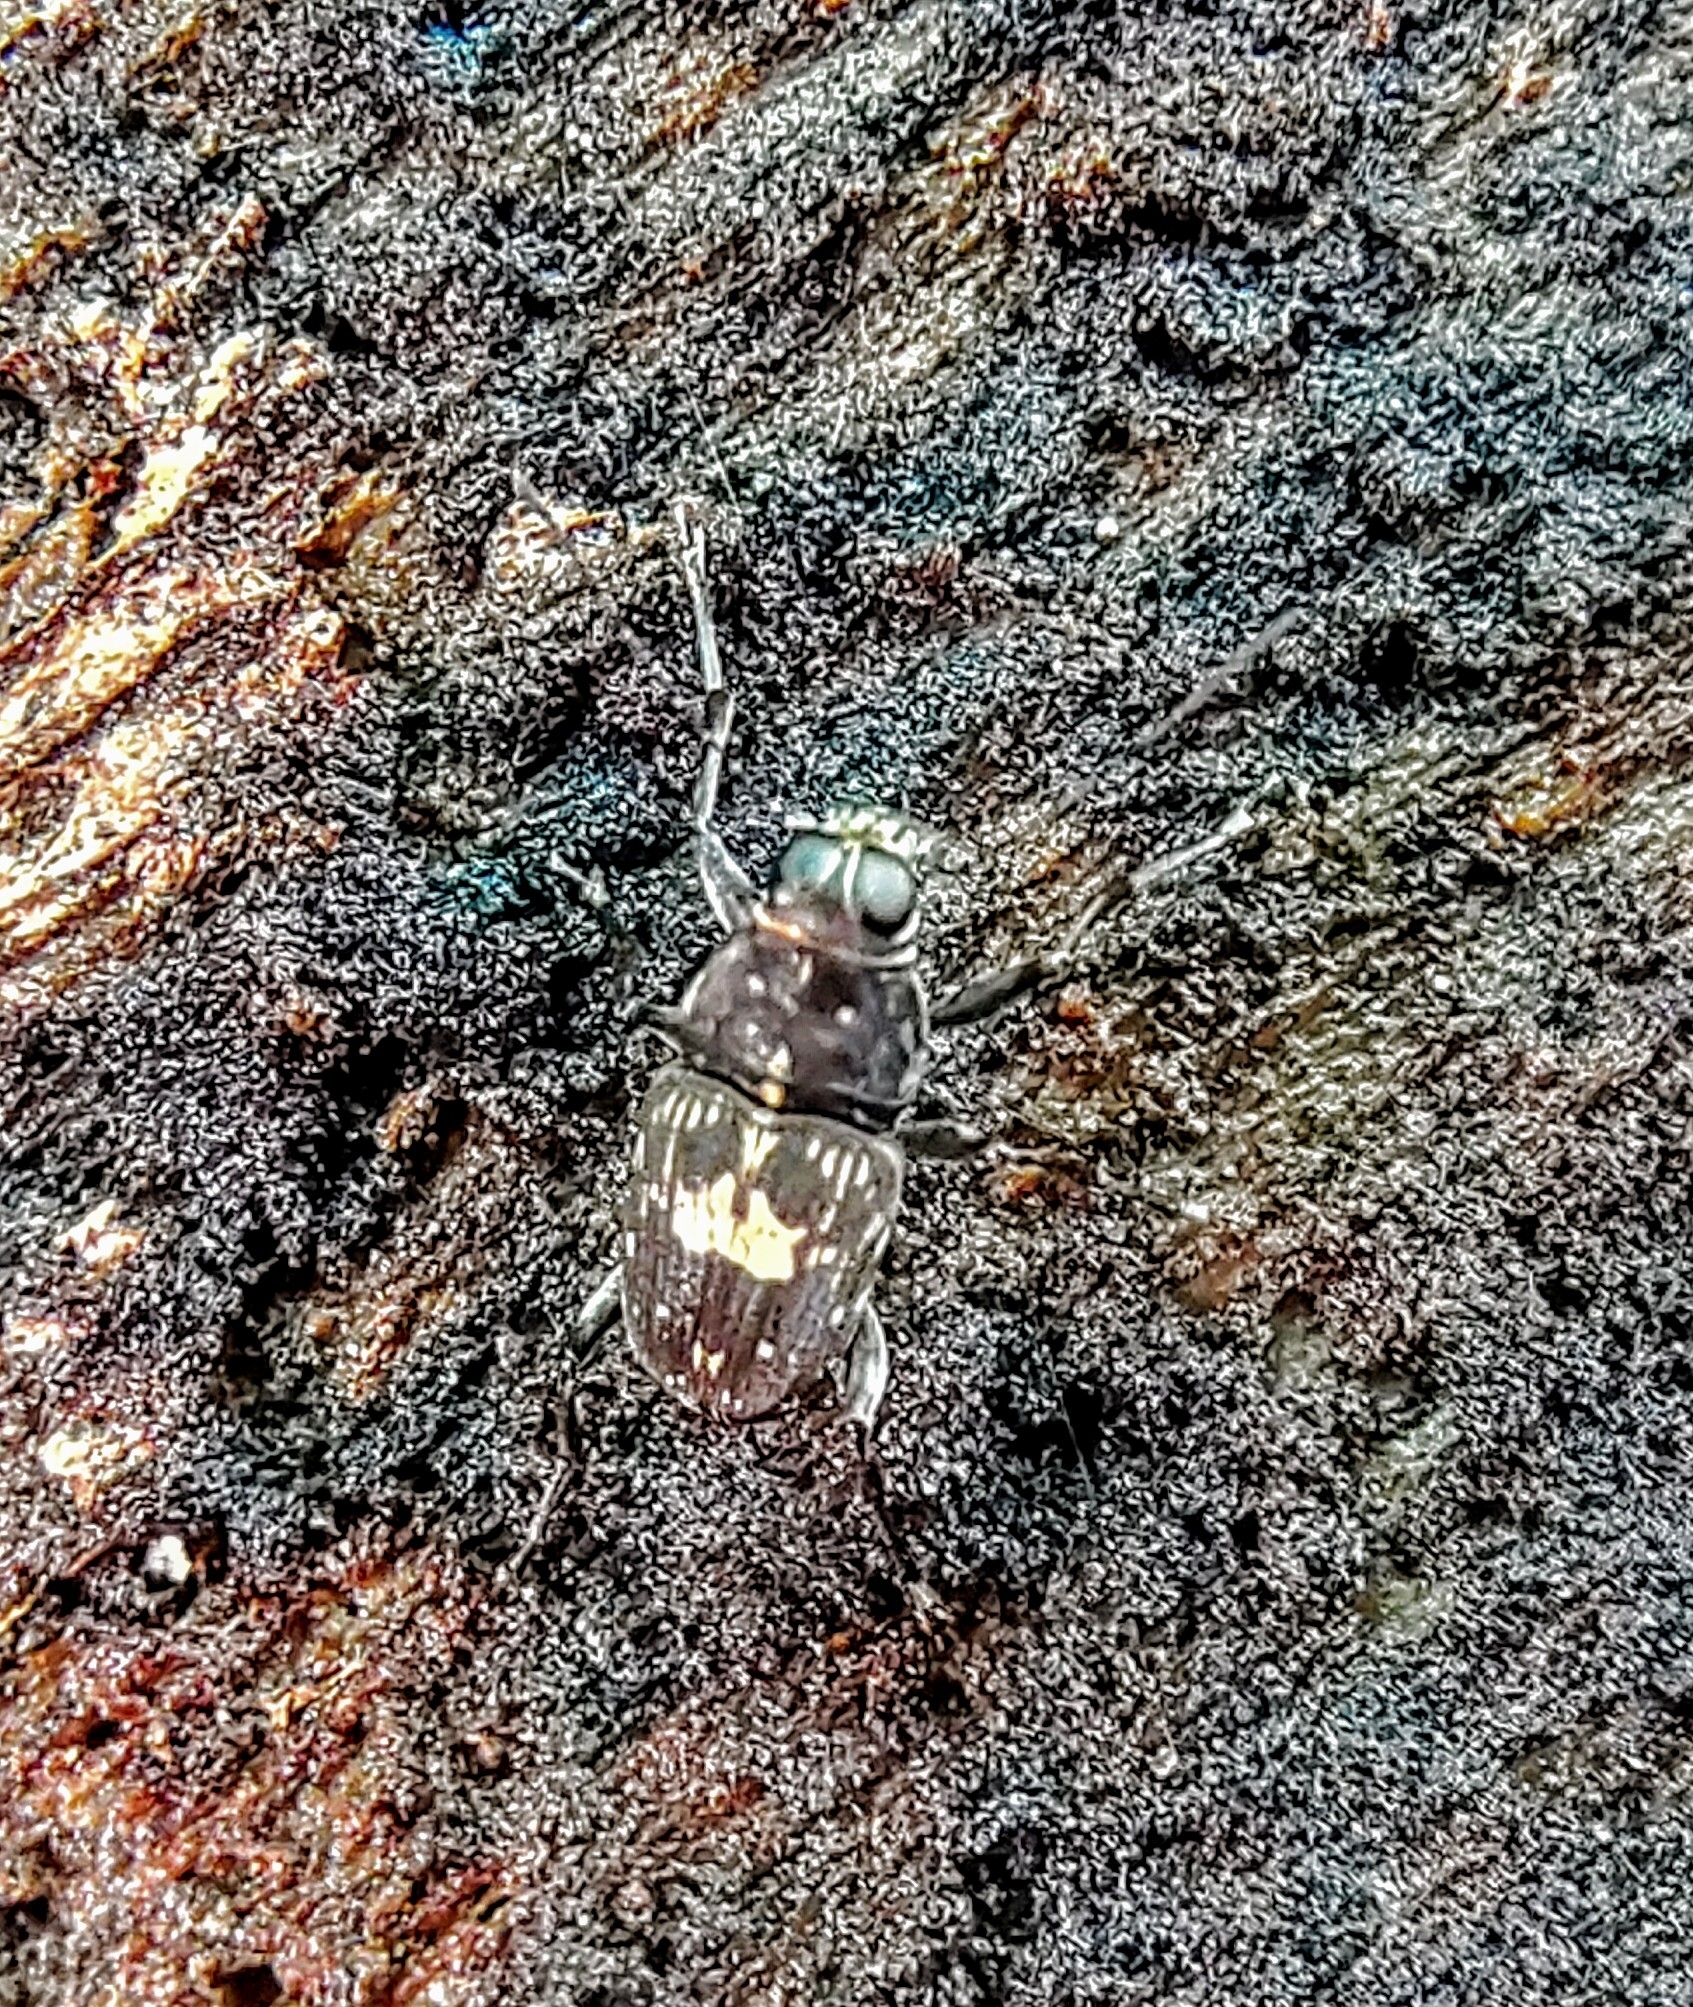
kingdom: Animalia
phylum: Arthropoda
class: Insecta
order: Coleoptera
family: Anthribidae
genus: Litocerus
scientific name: Litocerus sellatus
